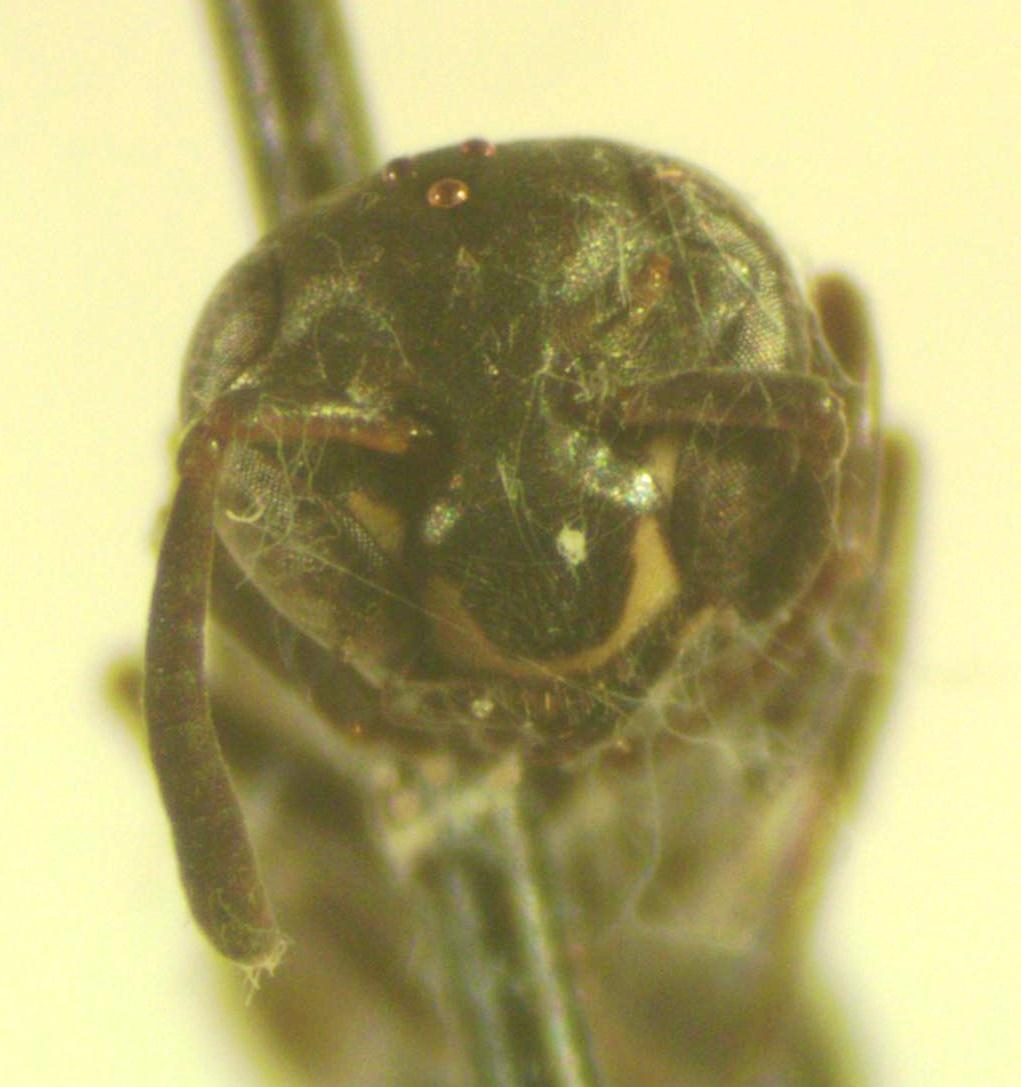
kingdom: Animalia
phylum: Arthropoda
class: Insecta
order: Hymenoptera
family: Eumenidae
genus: Polybia
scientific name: Polybia occidentalis
